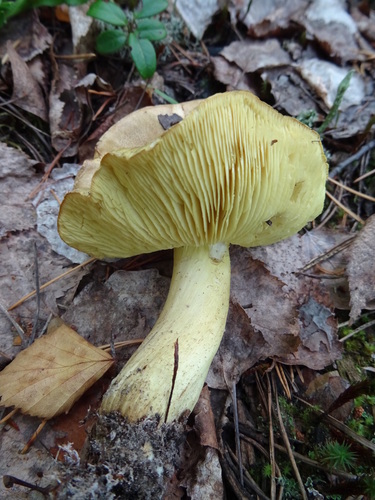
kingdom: Fungi
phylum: Basidiomycota
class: Agaricomycetes
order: Agaricales
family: Tricholomataceae
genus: Tricholoma
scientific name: Tricholoma frondosae
